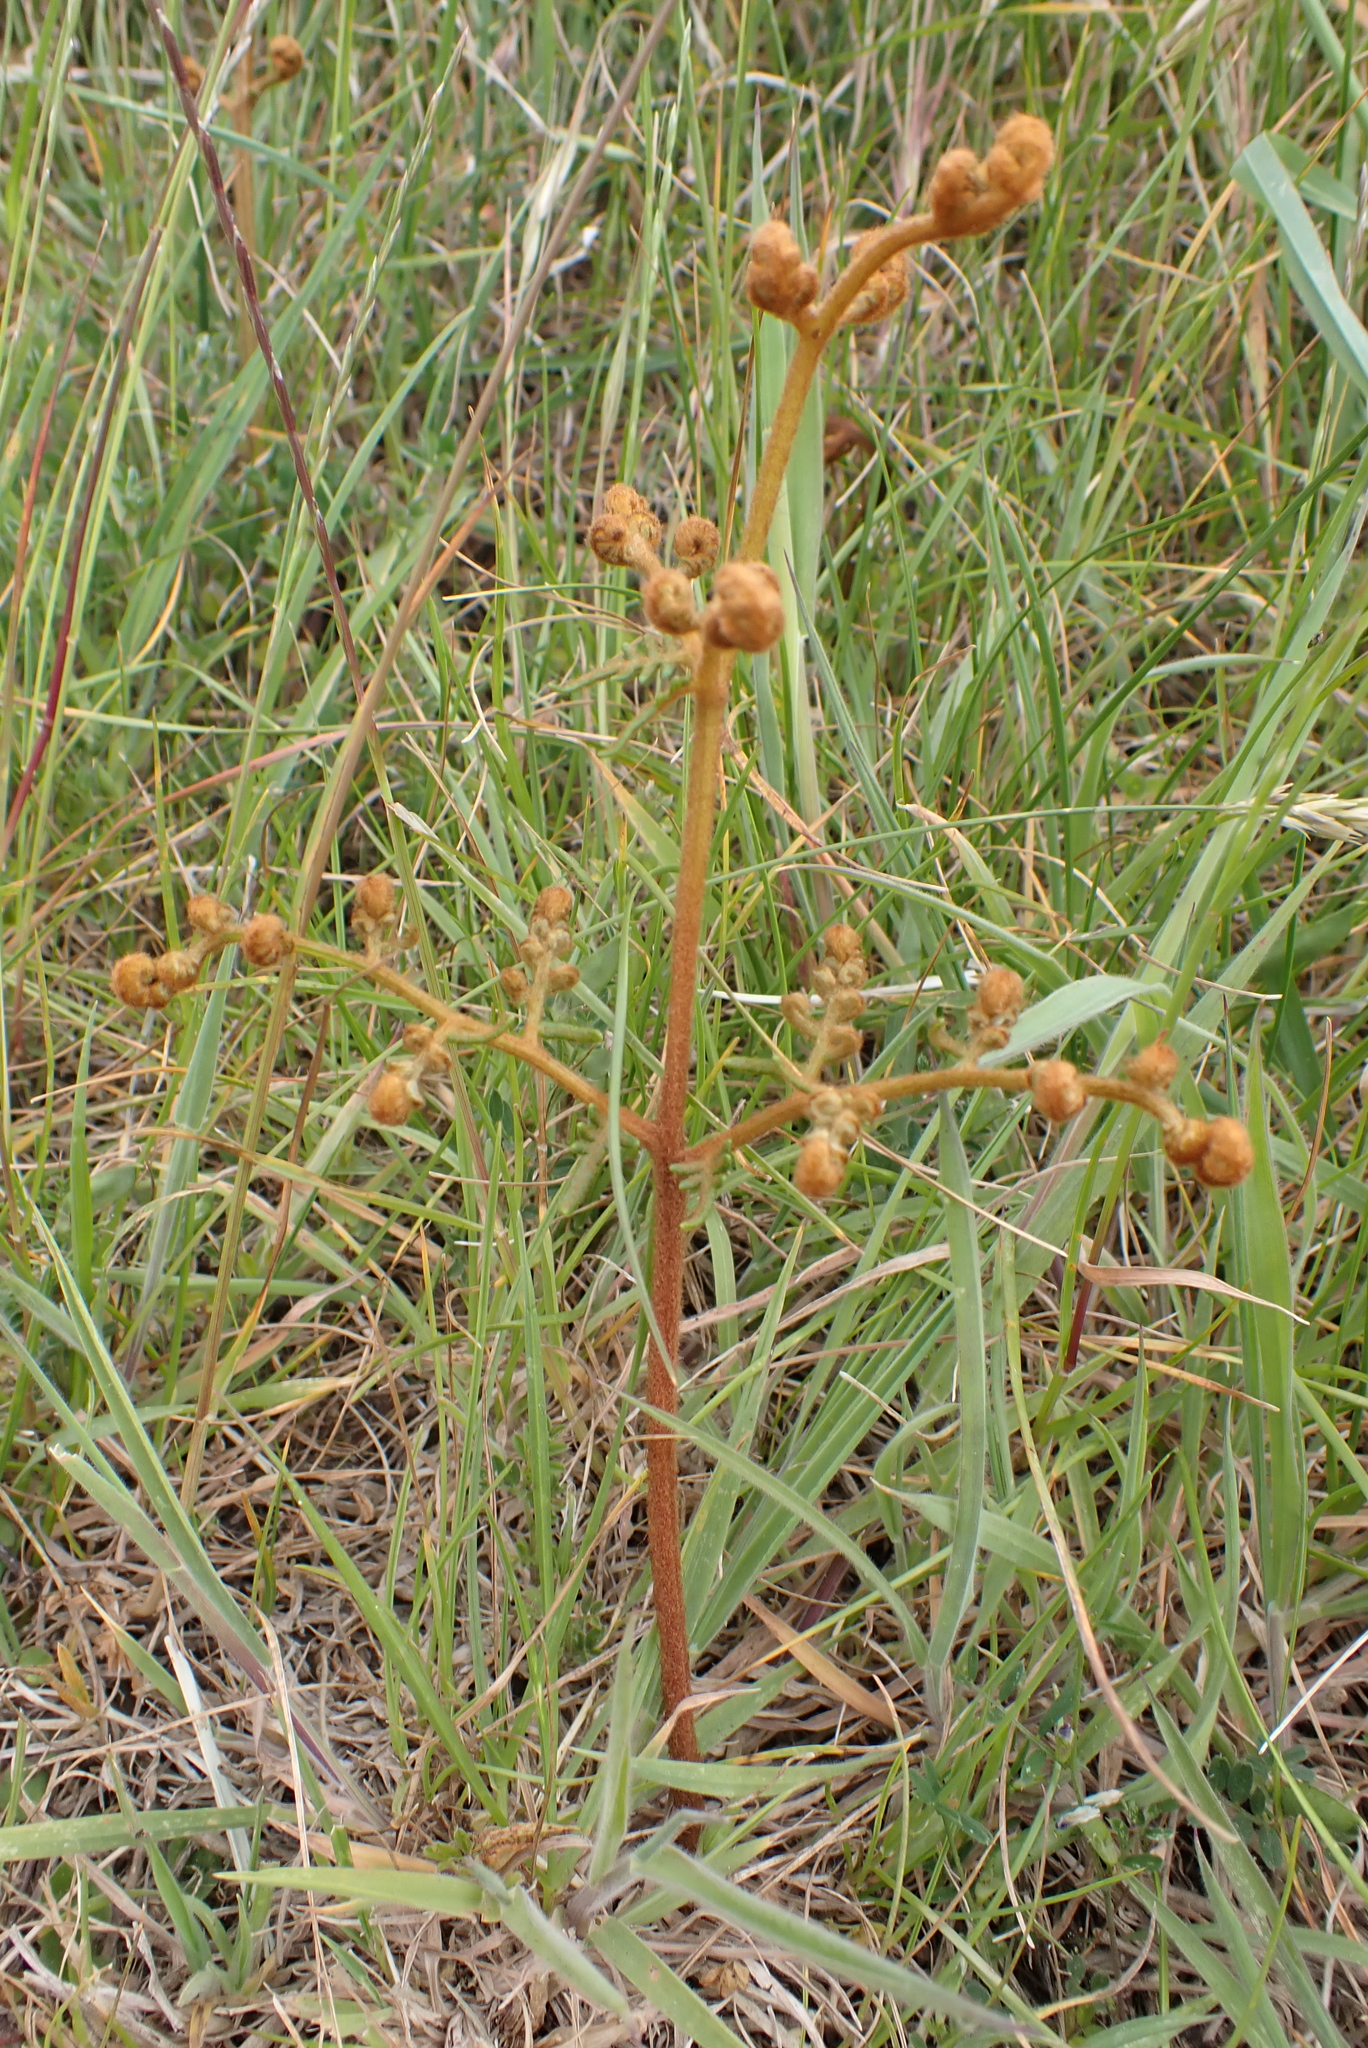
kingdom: Plantae
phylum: Tracheophyta
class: Polypodiopsida
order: Polypodiales
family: Dennstaedtiaceae
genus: Pteridium
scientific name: Pteridium esculentum
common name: Bracken fern
